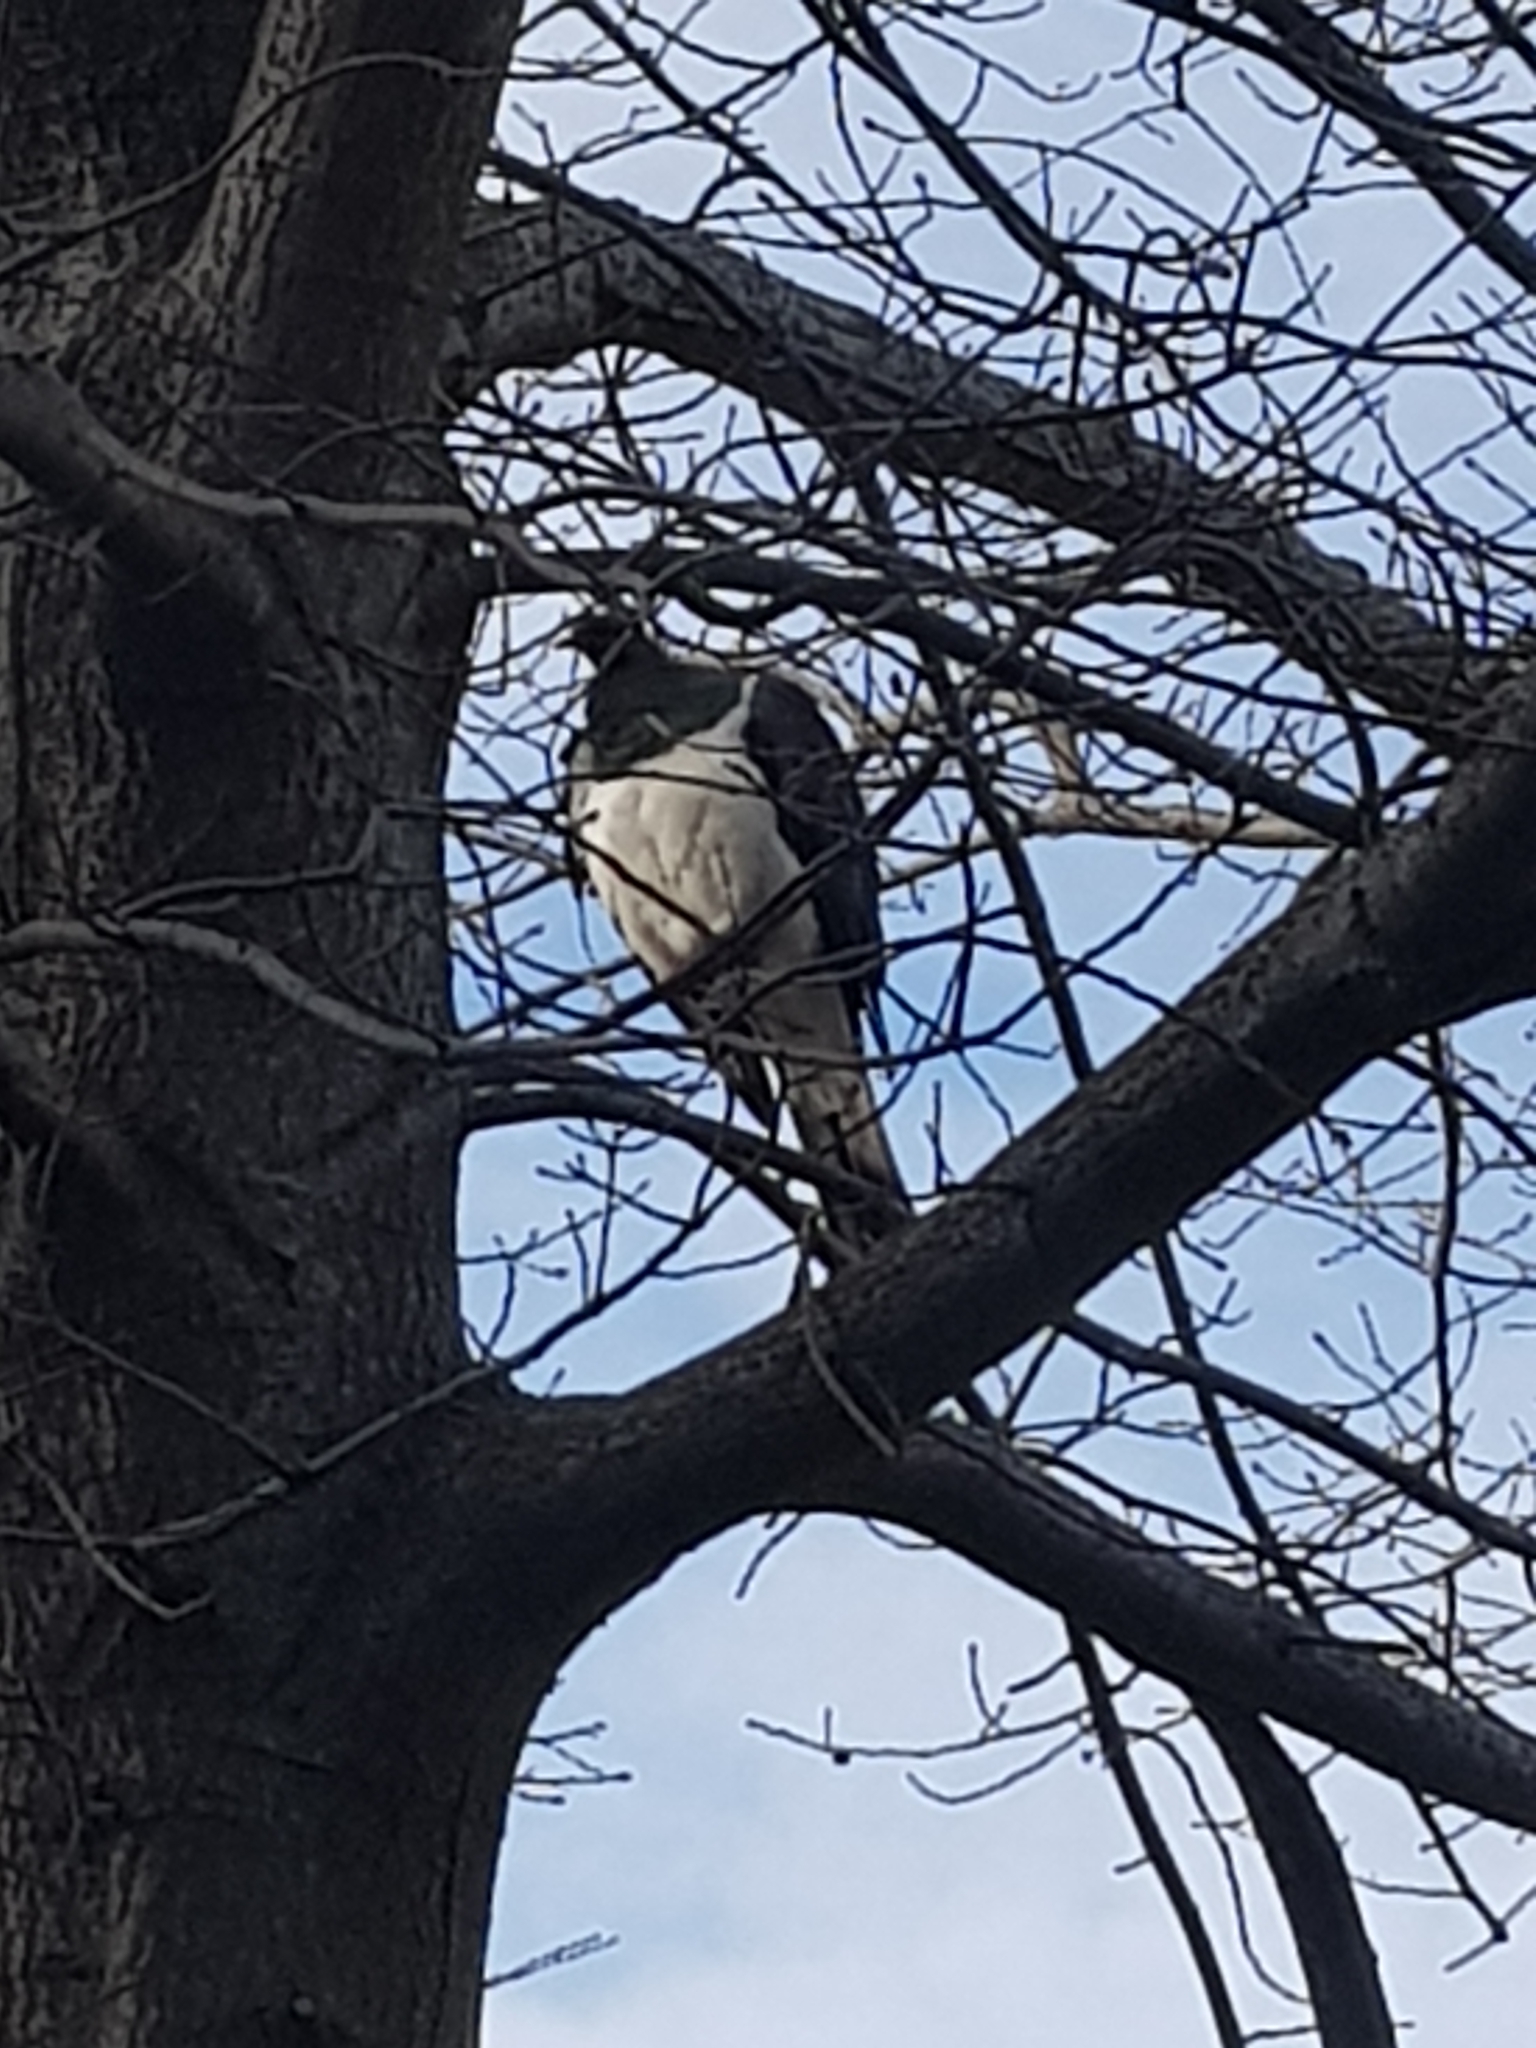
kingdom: Animalia
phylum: Chordata
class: Aves
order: Columbiformes
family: Columbidae
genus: Hemiphaga
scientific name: Hemiphaga novaeseelandiae
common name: New zealand pigeon
